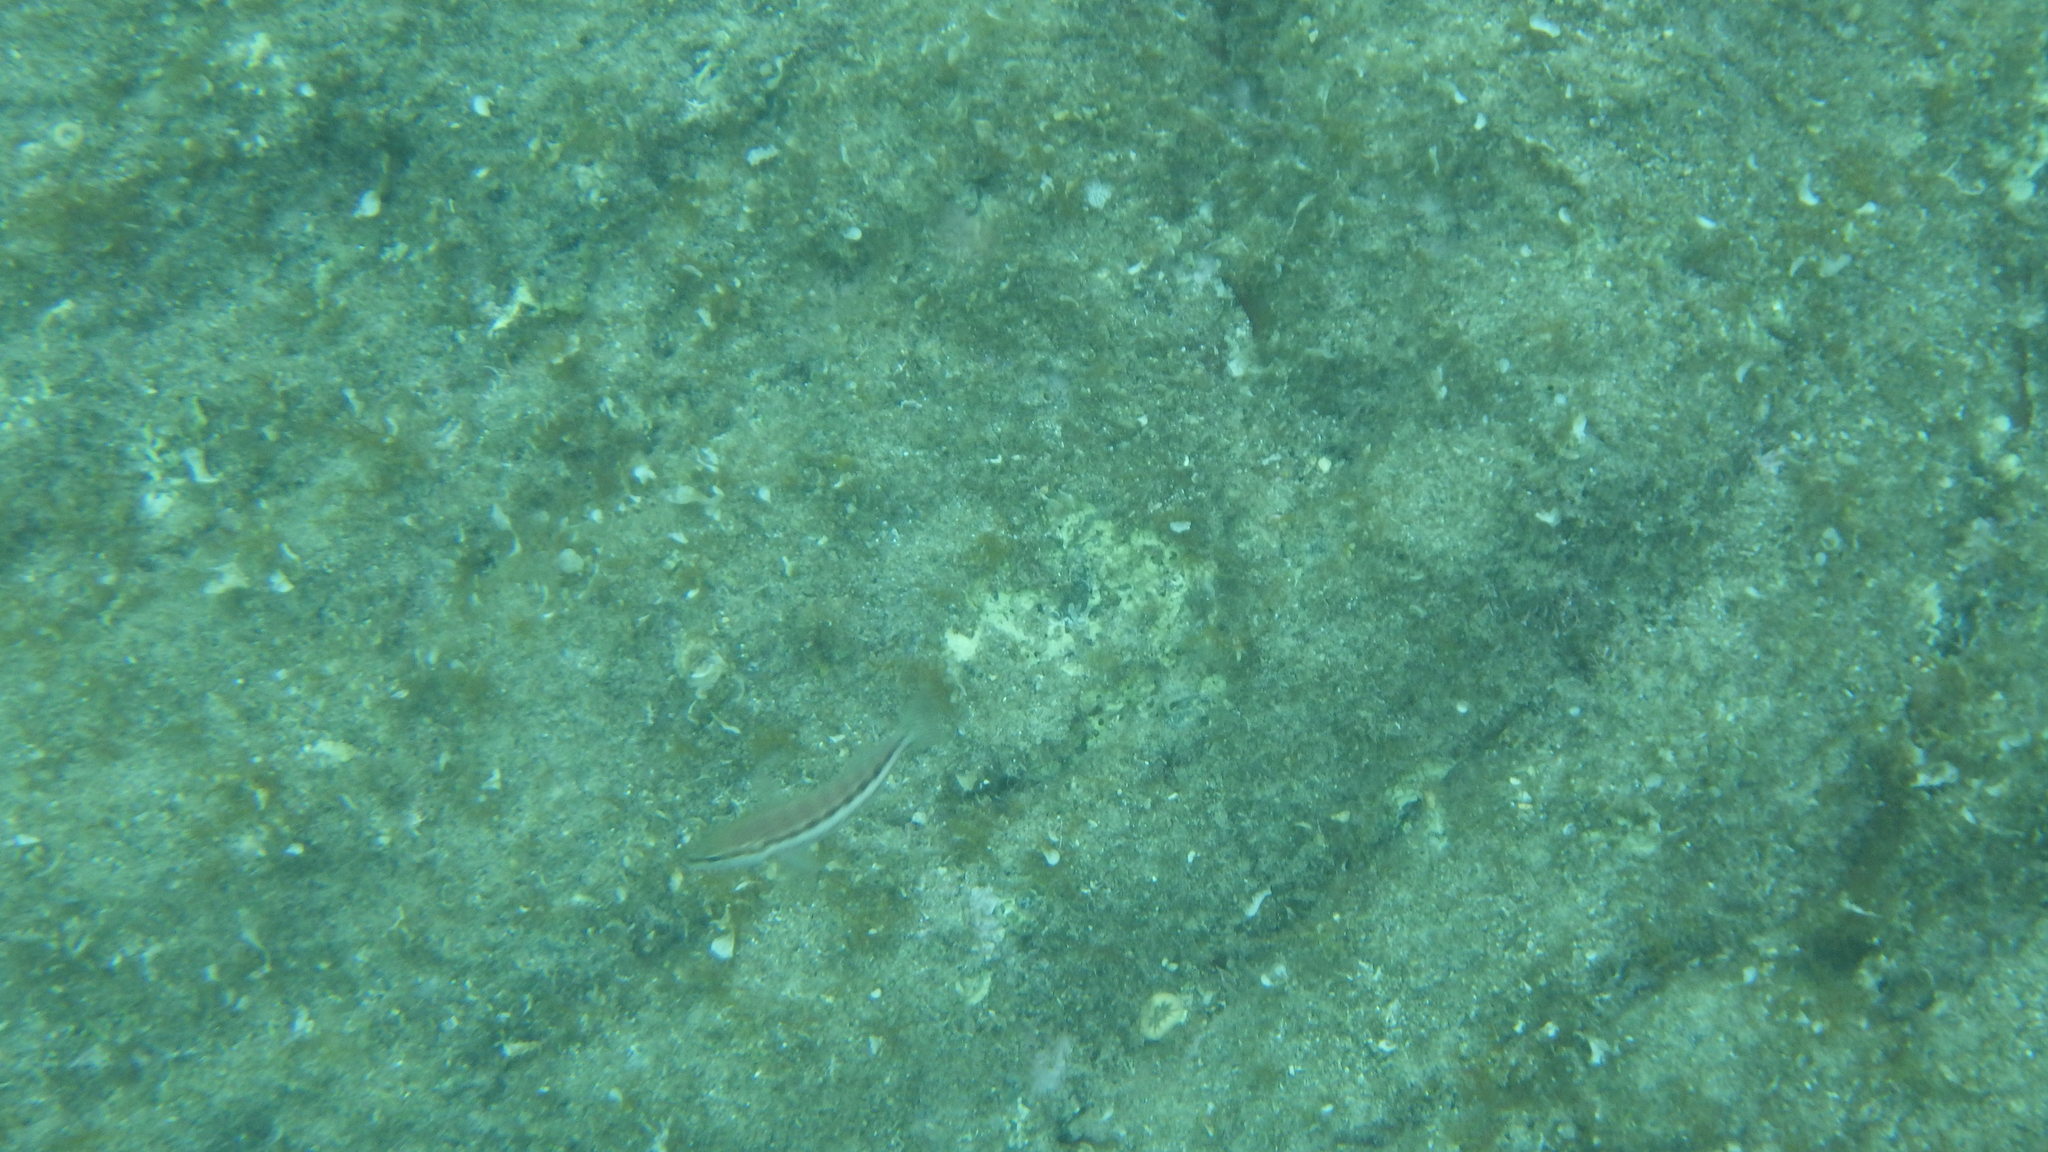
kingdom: Animalia
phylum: Chordata
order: Perciformes
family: Serranidae
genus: Serranus
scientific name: Serranus cabrilla
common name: Comber
